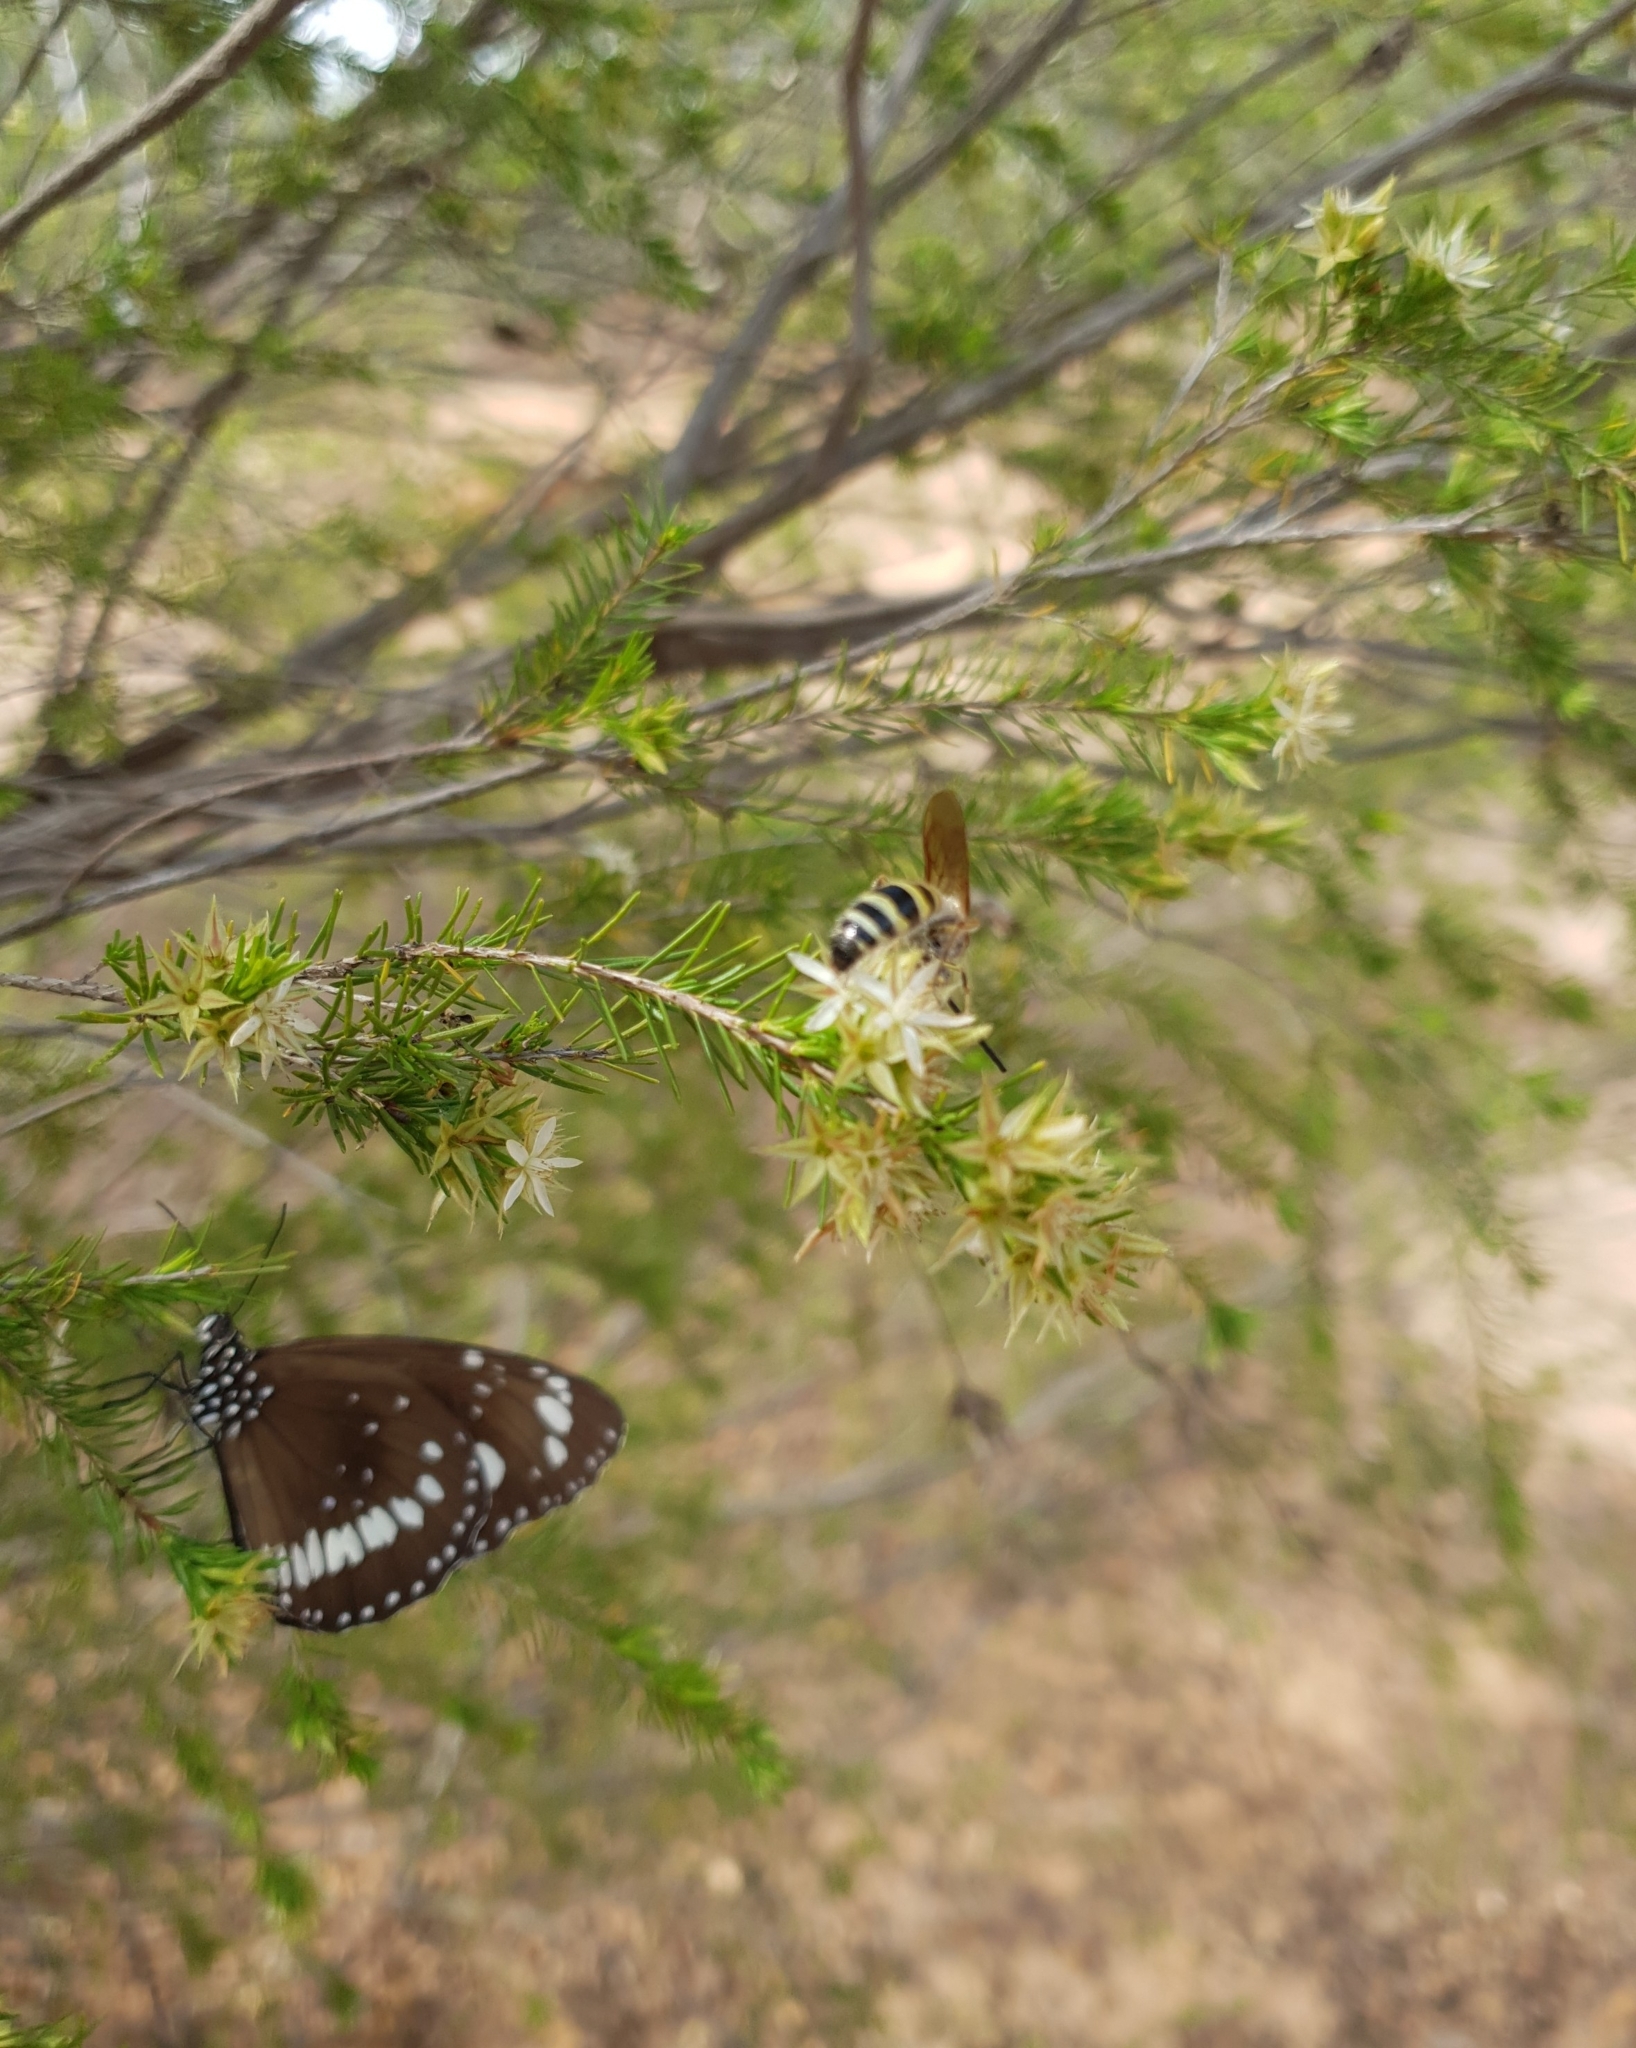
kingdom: Animalia
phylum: Arthropoda
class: Insecta
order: Lepidoptera
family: Nymphalidae
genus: Euploea
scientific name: Euploea core
